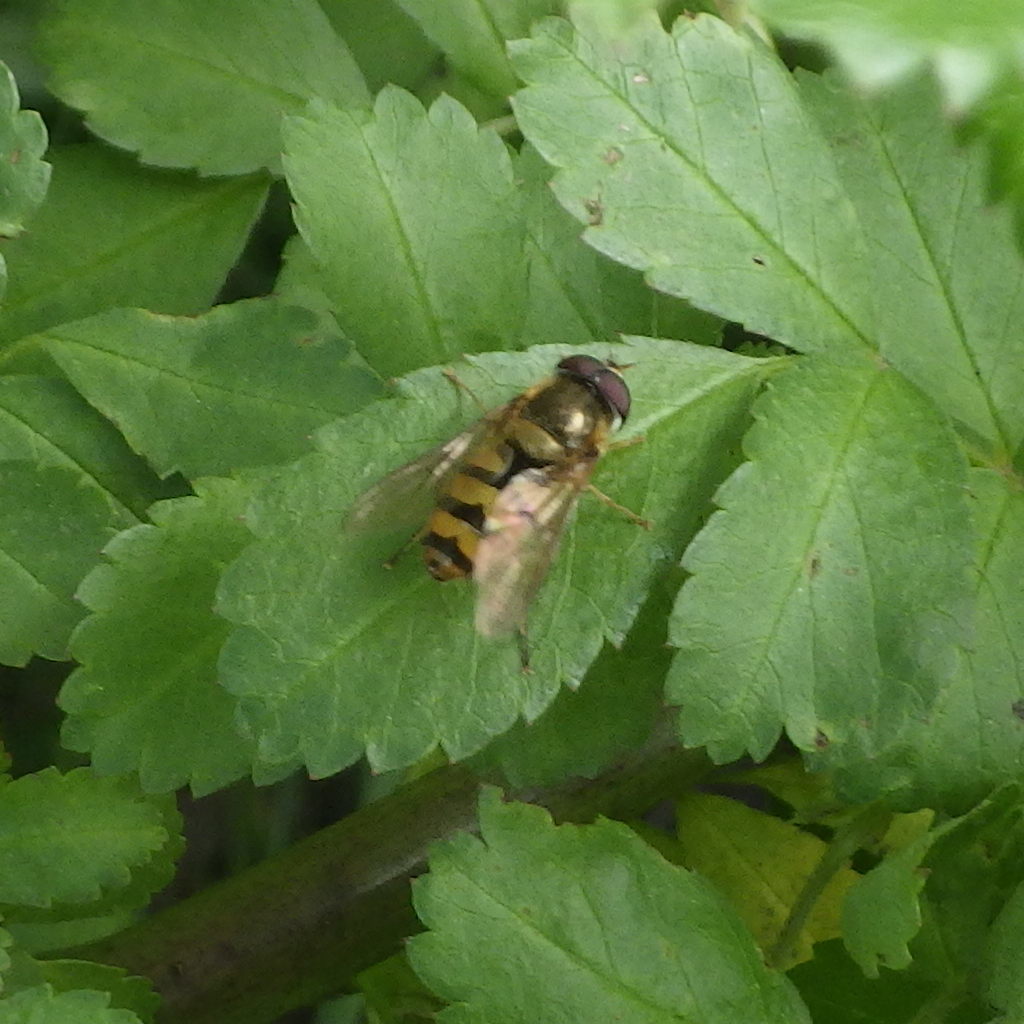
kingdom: Animalia
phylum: Arthropoda
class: Insecta
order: Diptera
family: Syrphidae
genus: Epistrophe
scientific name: Epistrophe xanthostoma
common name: Emarginate smoothtail
